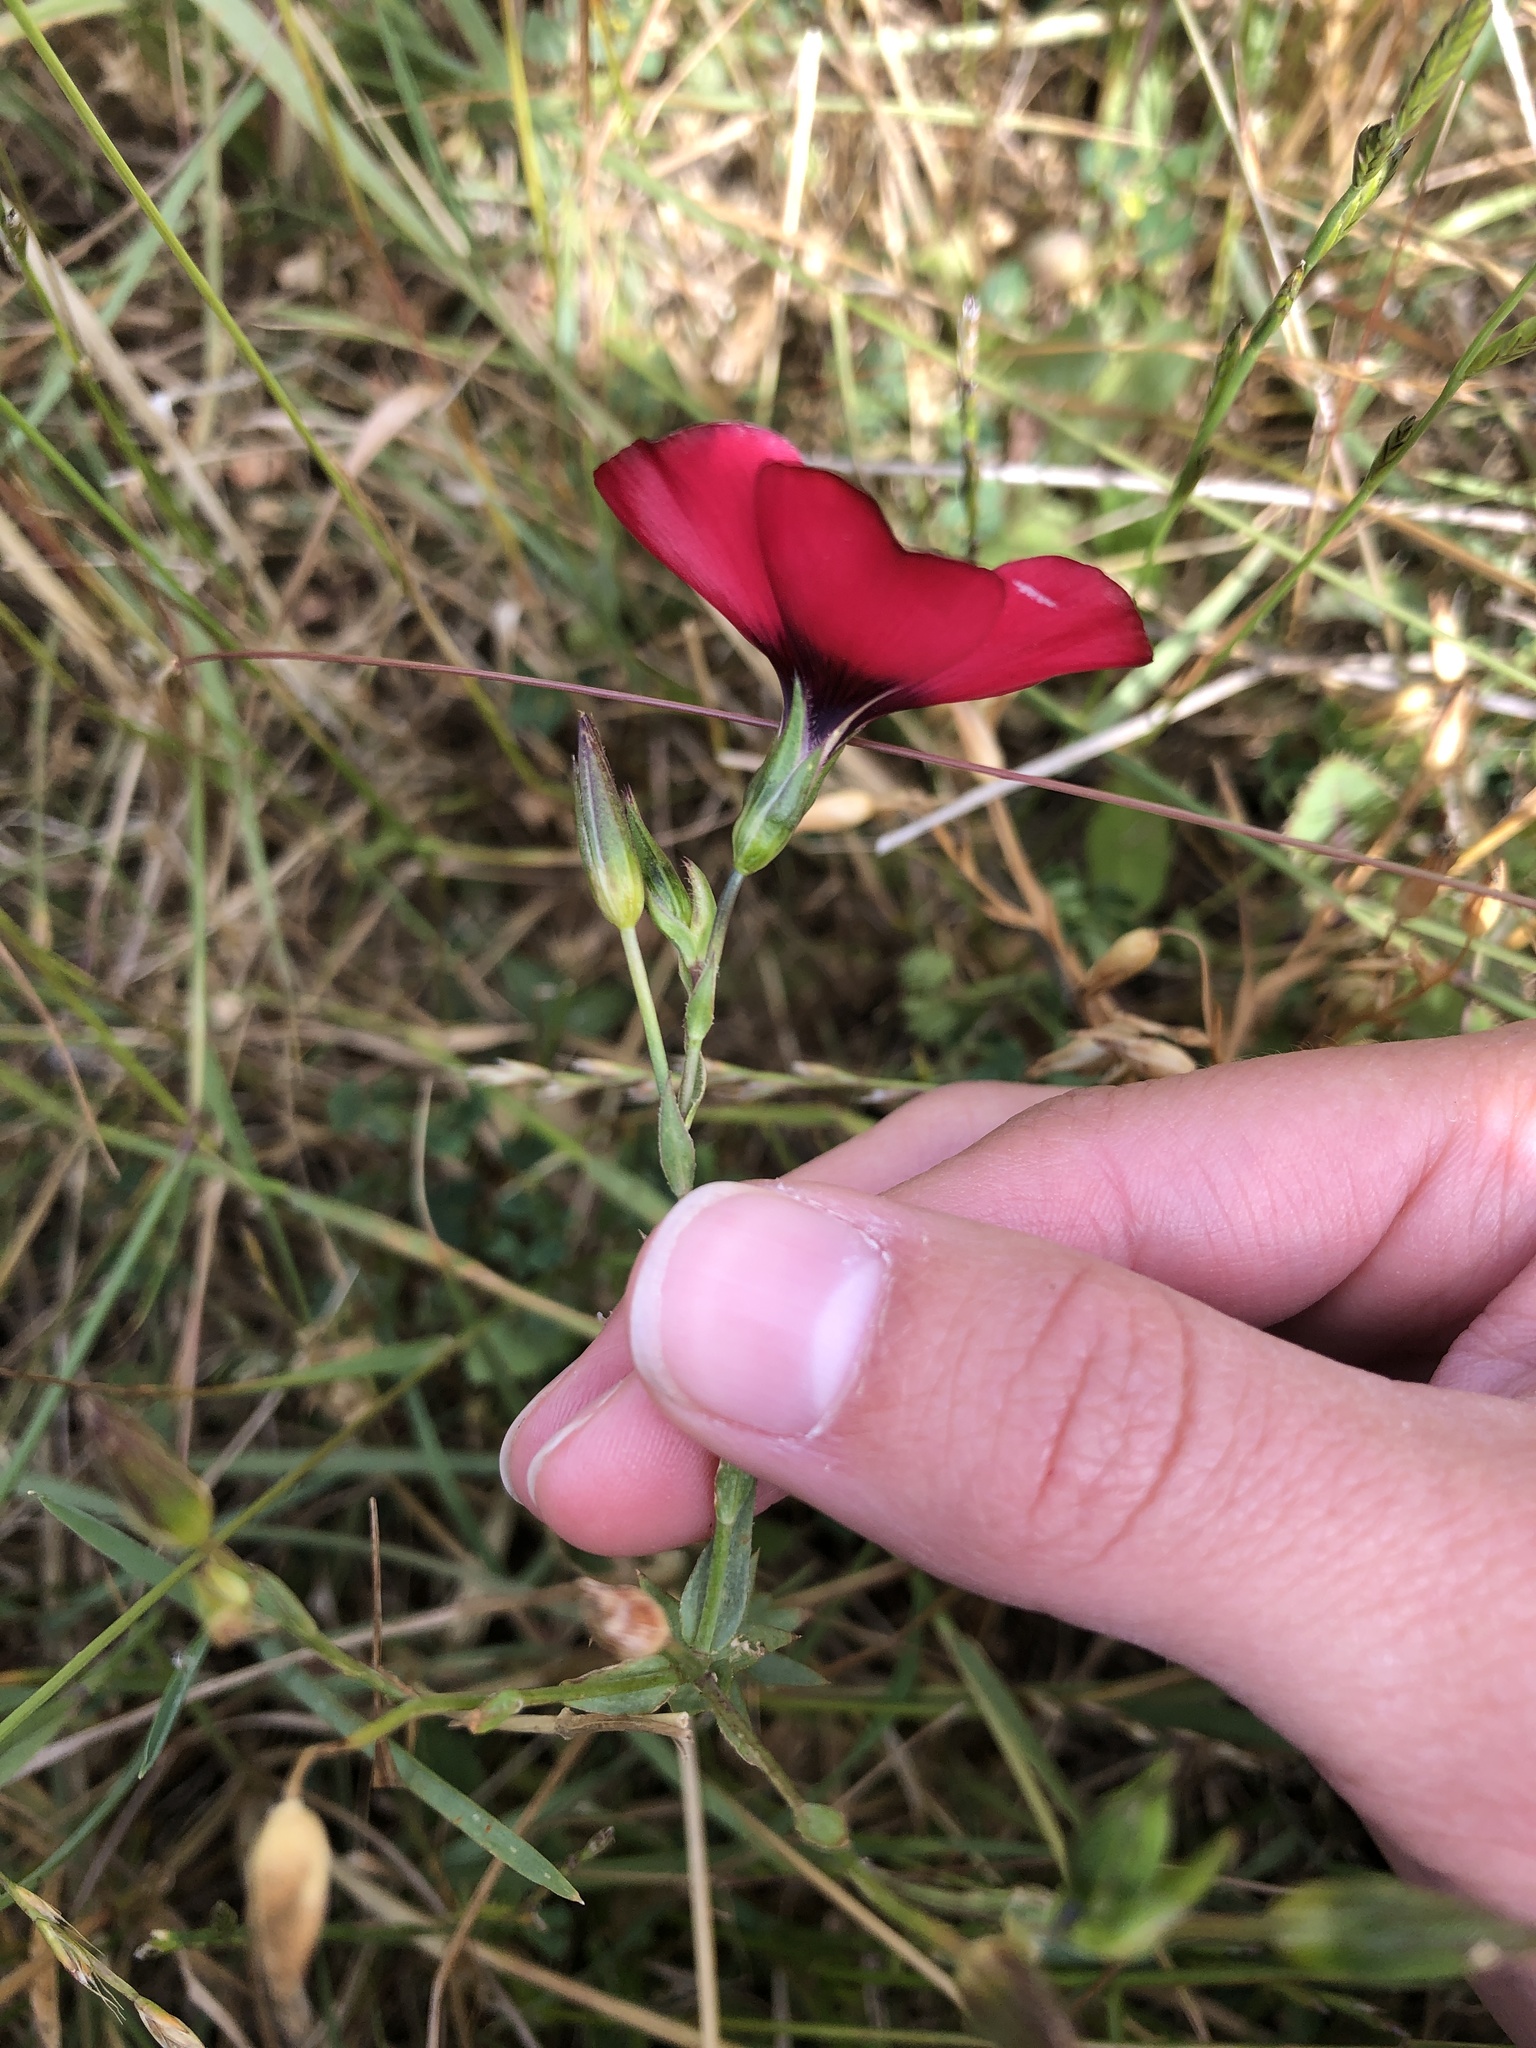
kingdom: Plantae
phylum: Tracheophyta
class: Magnoliopsida
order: Malpighiales
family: Linaceae
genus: Linum
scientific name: Linum grandiflorum
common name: Crimson flax
